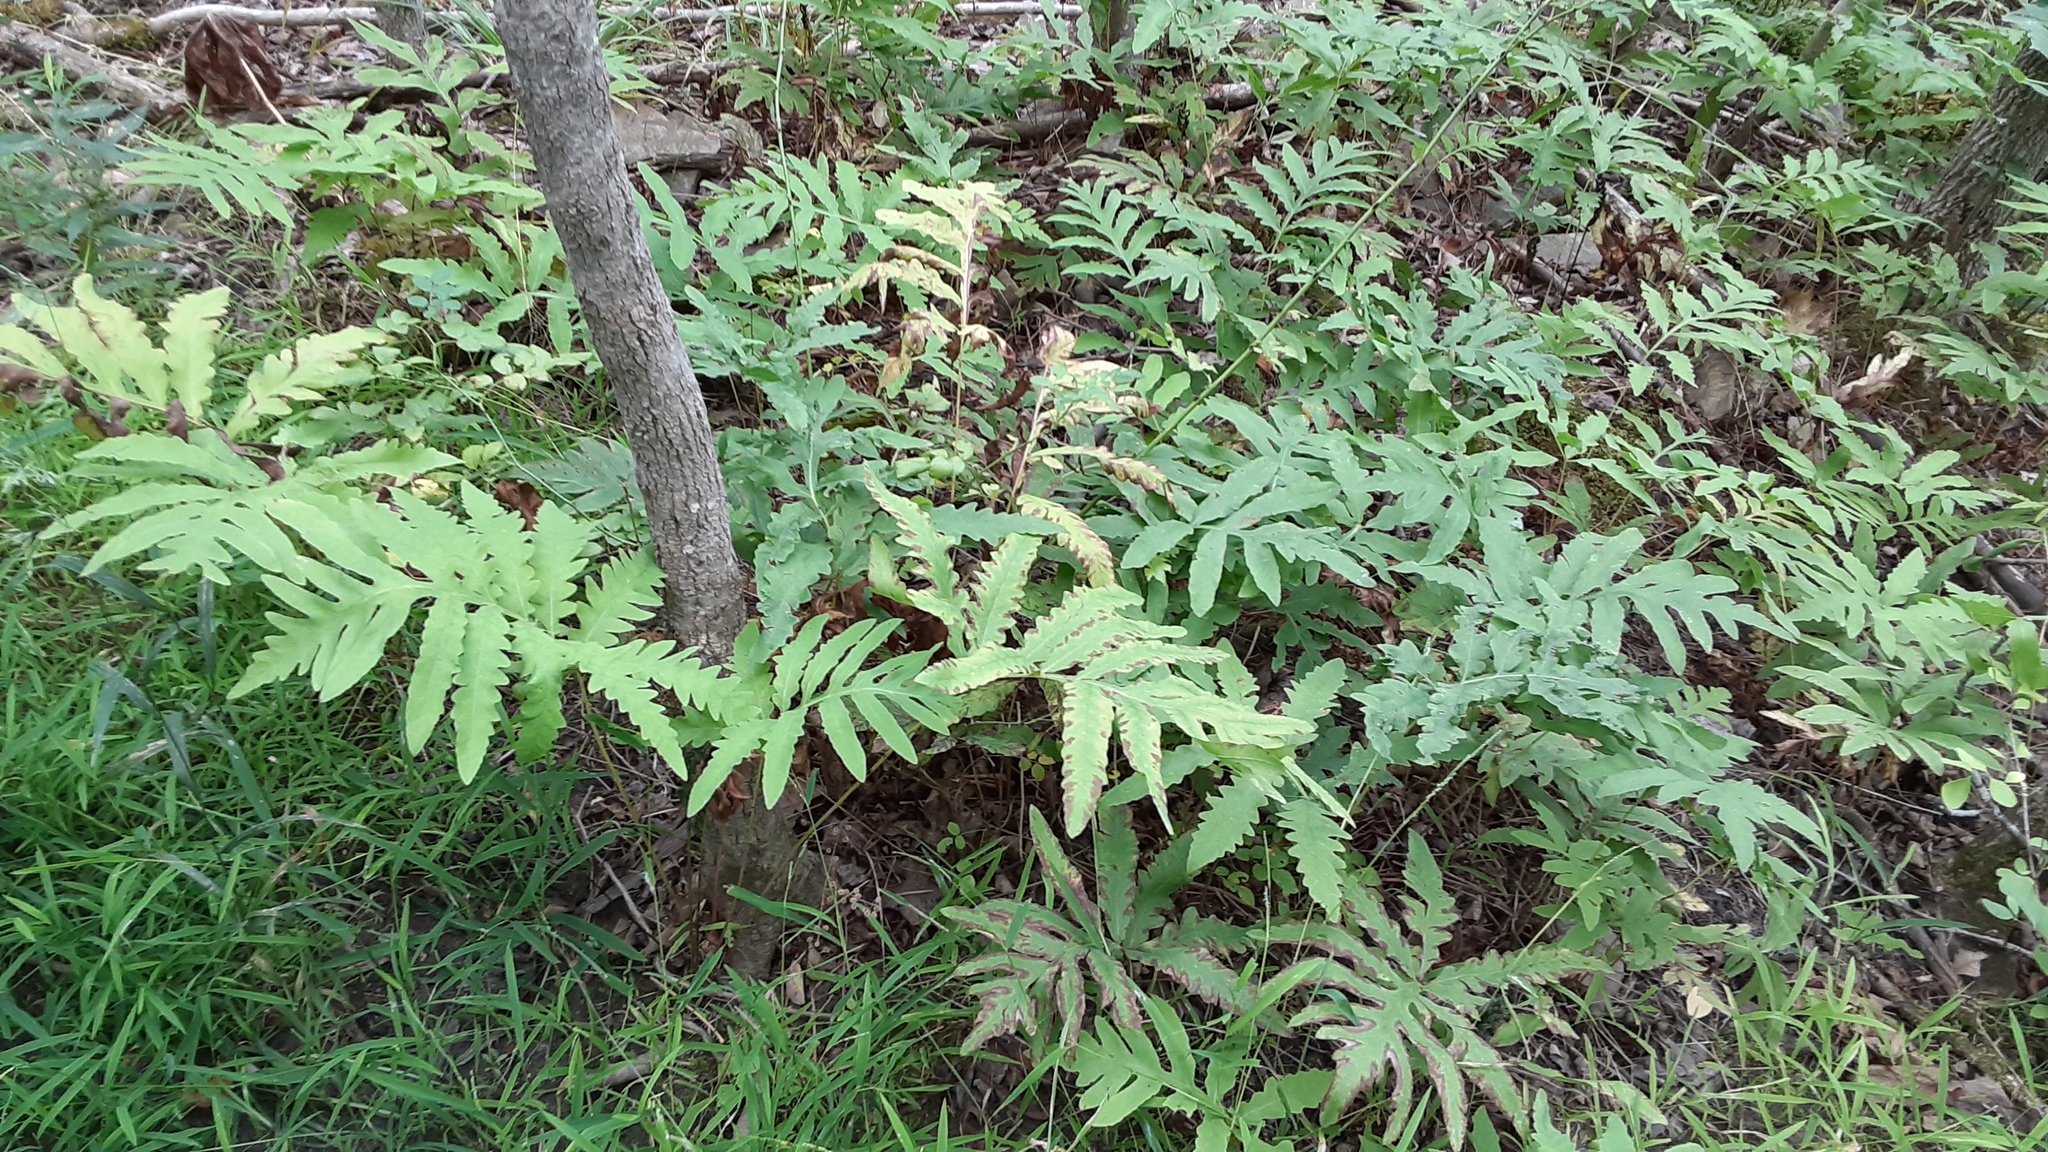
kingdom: Plantae
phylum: Tracheophyta
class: Polypodiopsida
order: Polypodiales
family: Onocleaceae
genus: Onoclea
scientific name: Onoclea sensibilis
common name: Sensitive fern
